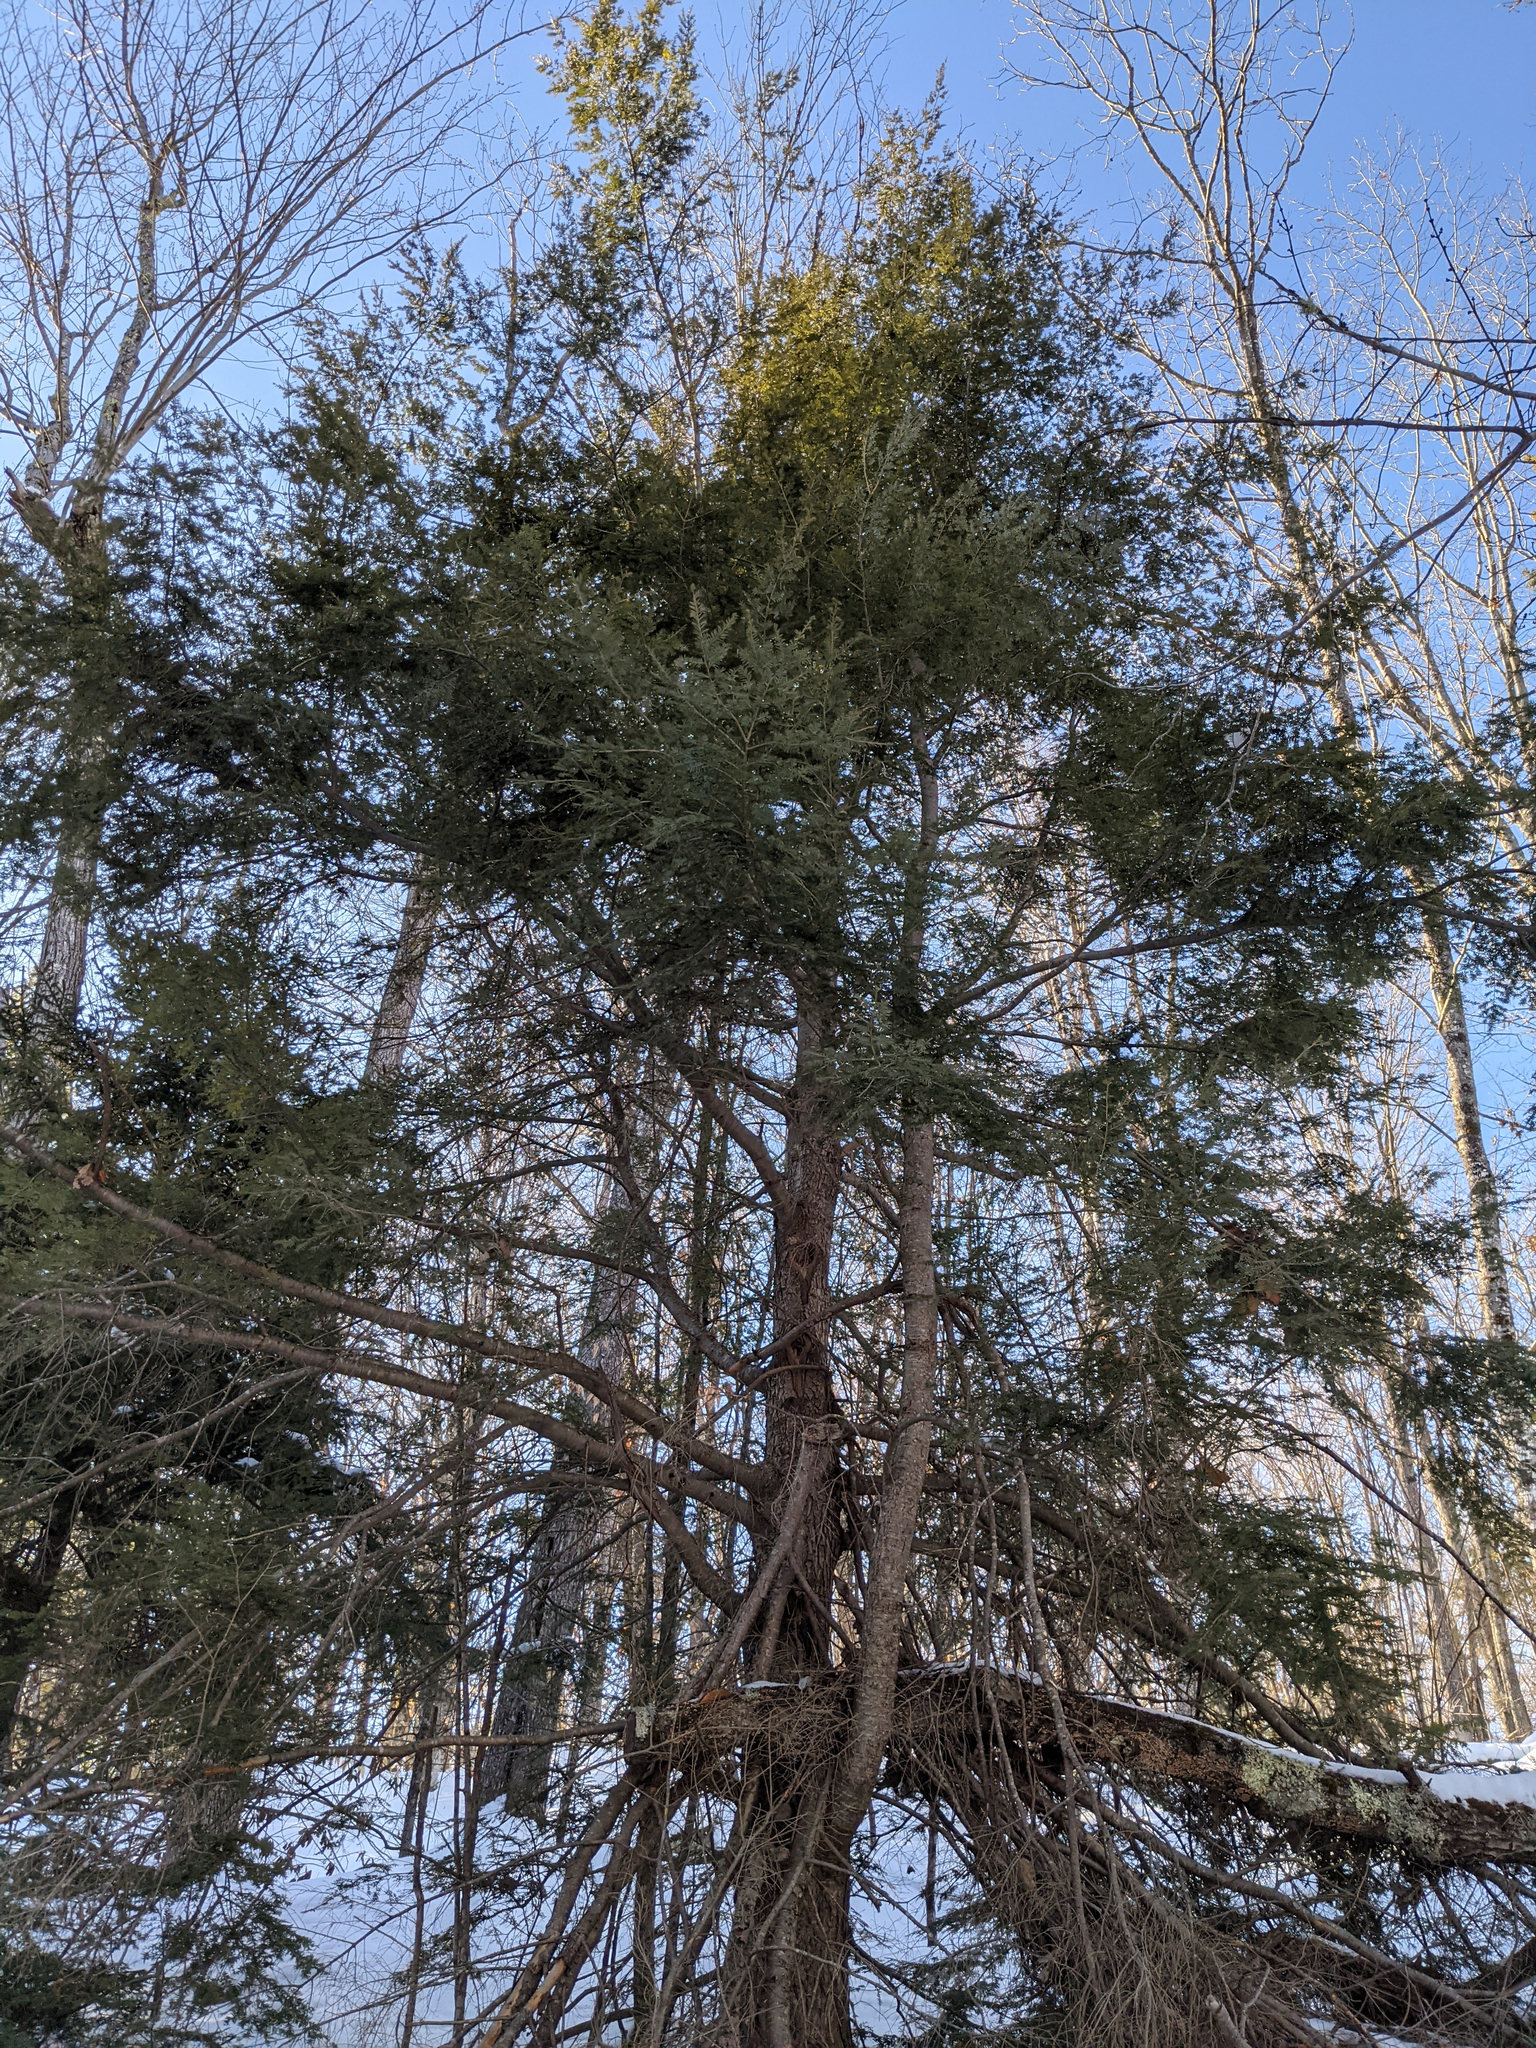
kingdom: Plantae
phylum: Tracheophyta
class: Pinopsida
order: Pinales
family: Pinaceae
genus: Tsuga
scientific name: Tsuga canadensis
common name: Eastern hemlock
